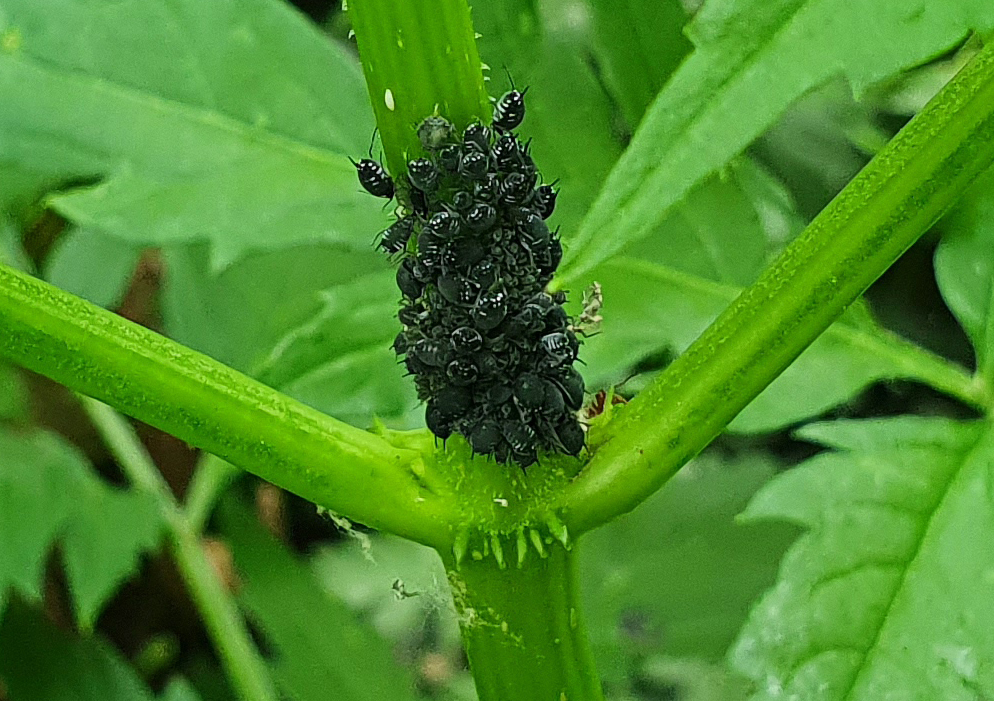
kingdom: Animalia
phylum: Arthropoda
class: Insecta
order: Hemiptera
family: Aphididae
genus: Aphis
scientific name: Aphis sambuci
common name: Elder aphid
